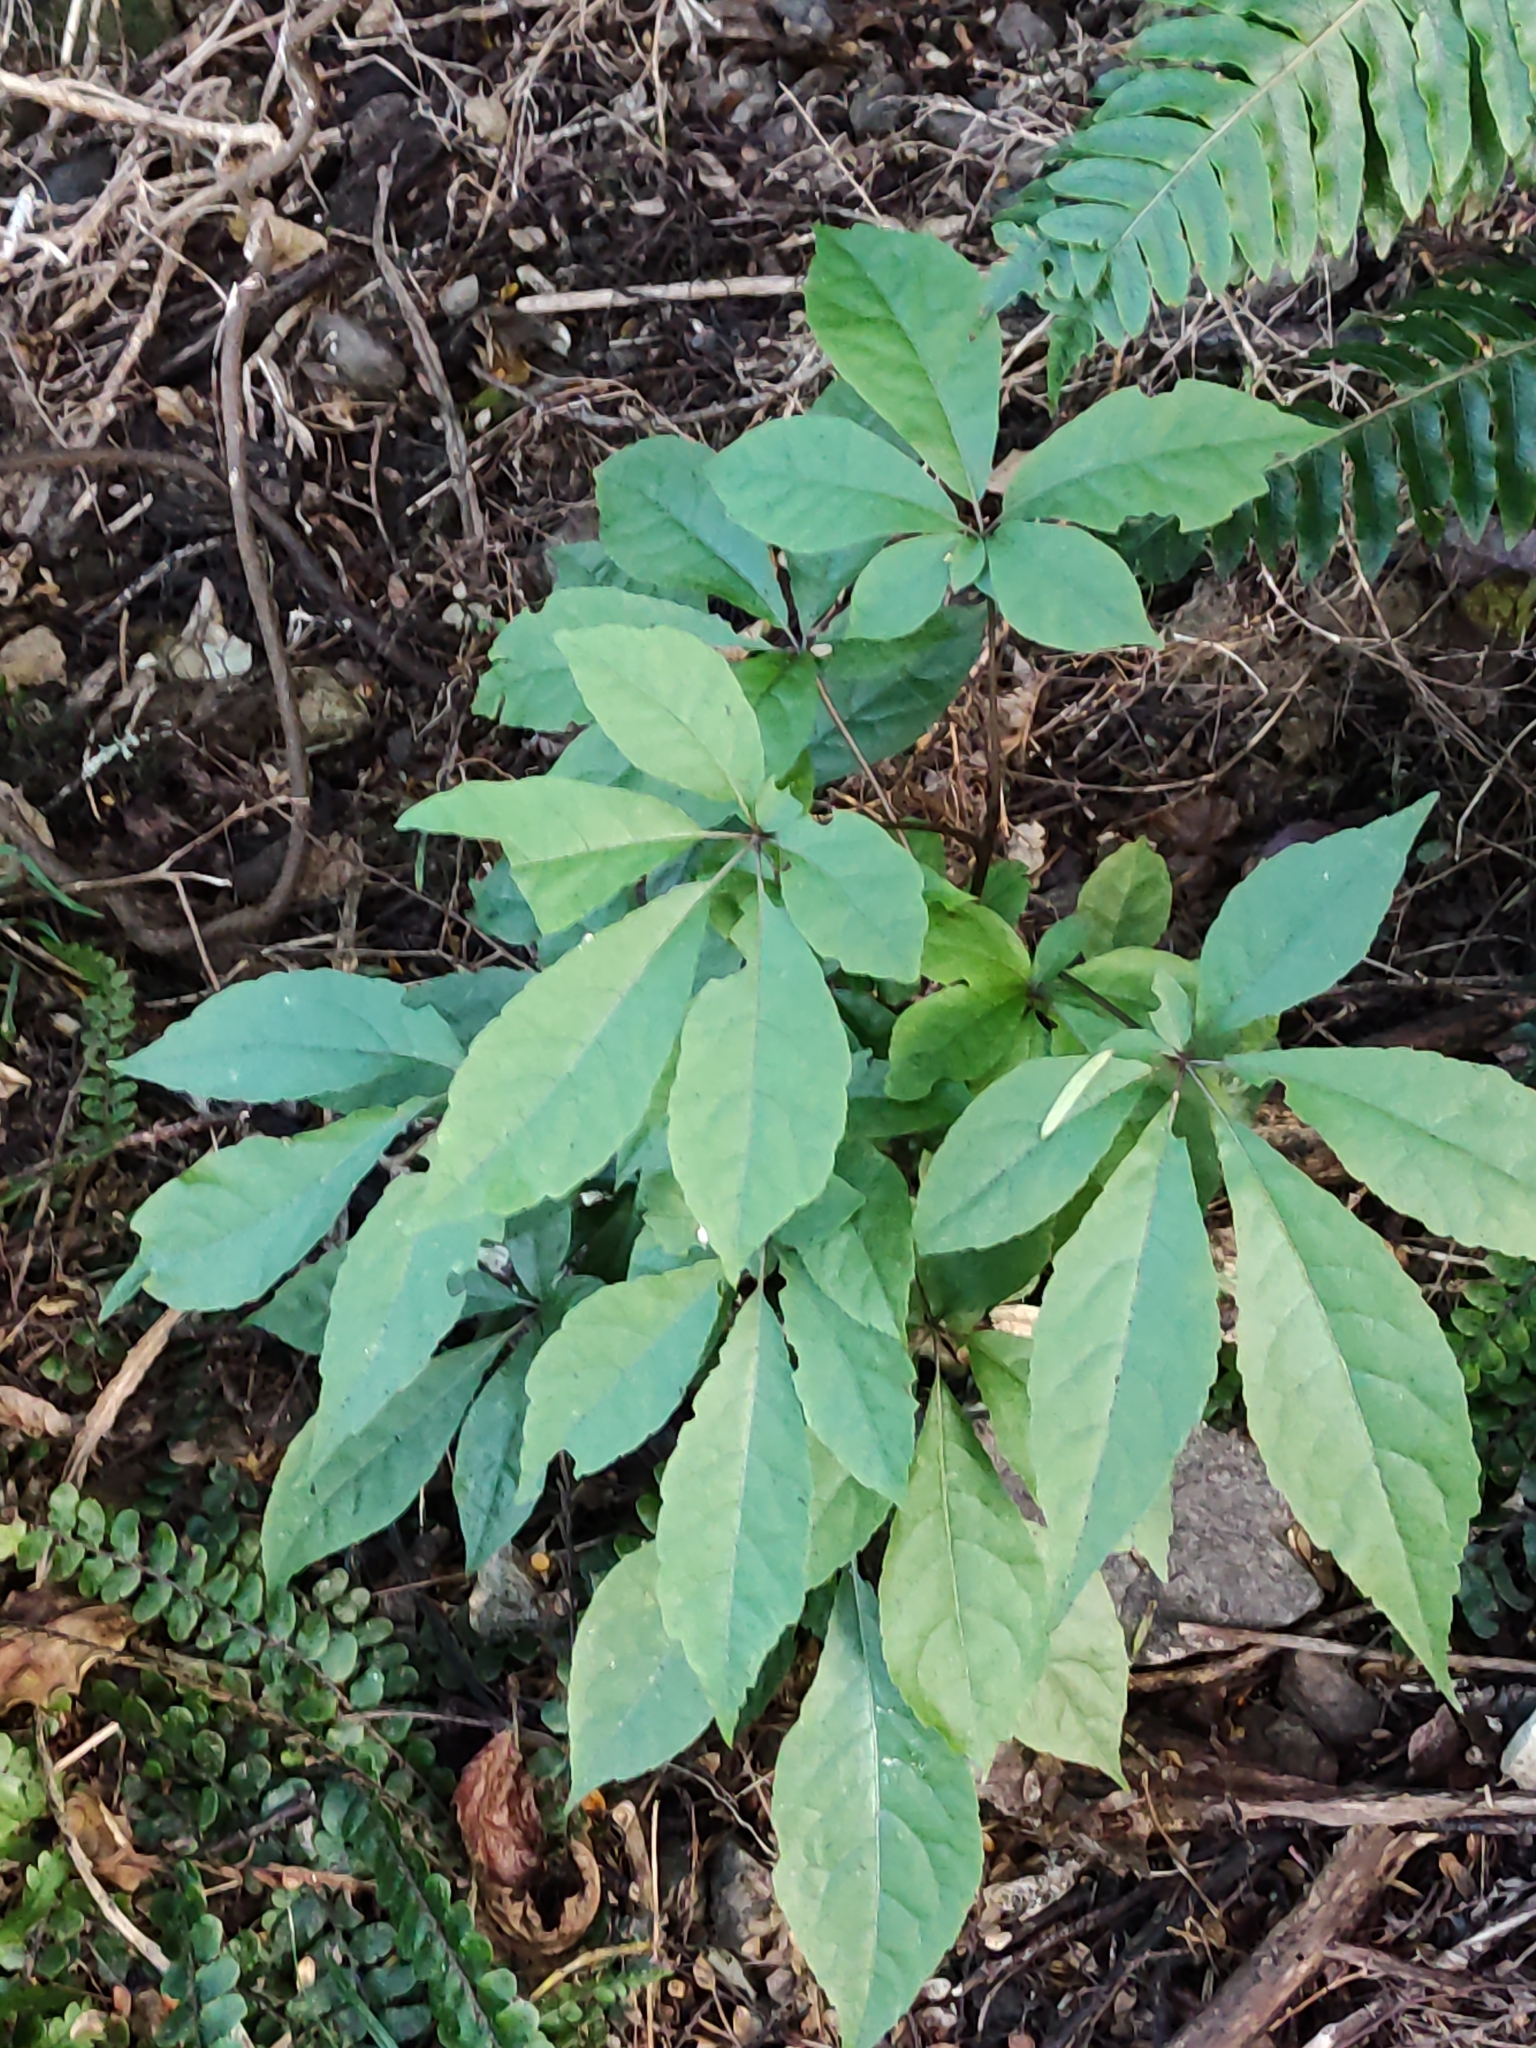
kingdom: Plantae
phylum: Tracheophyta
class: Magnoliopsida
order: Apiales
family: Araliaceae
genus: Schefflera
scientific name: Schefflera digitata
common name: Pate
